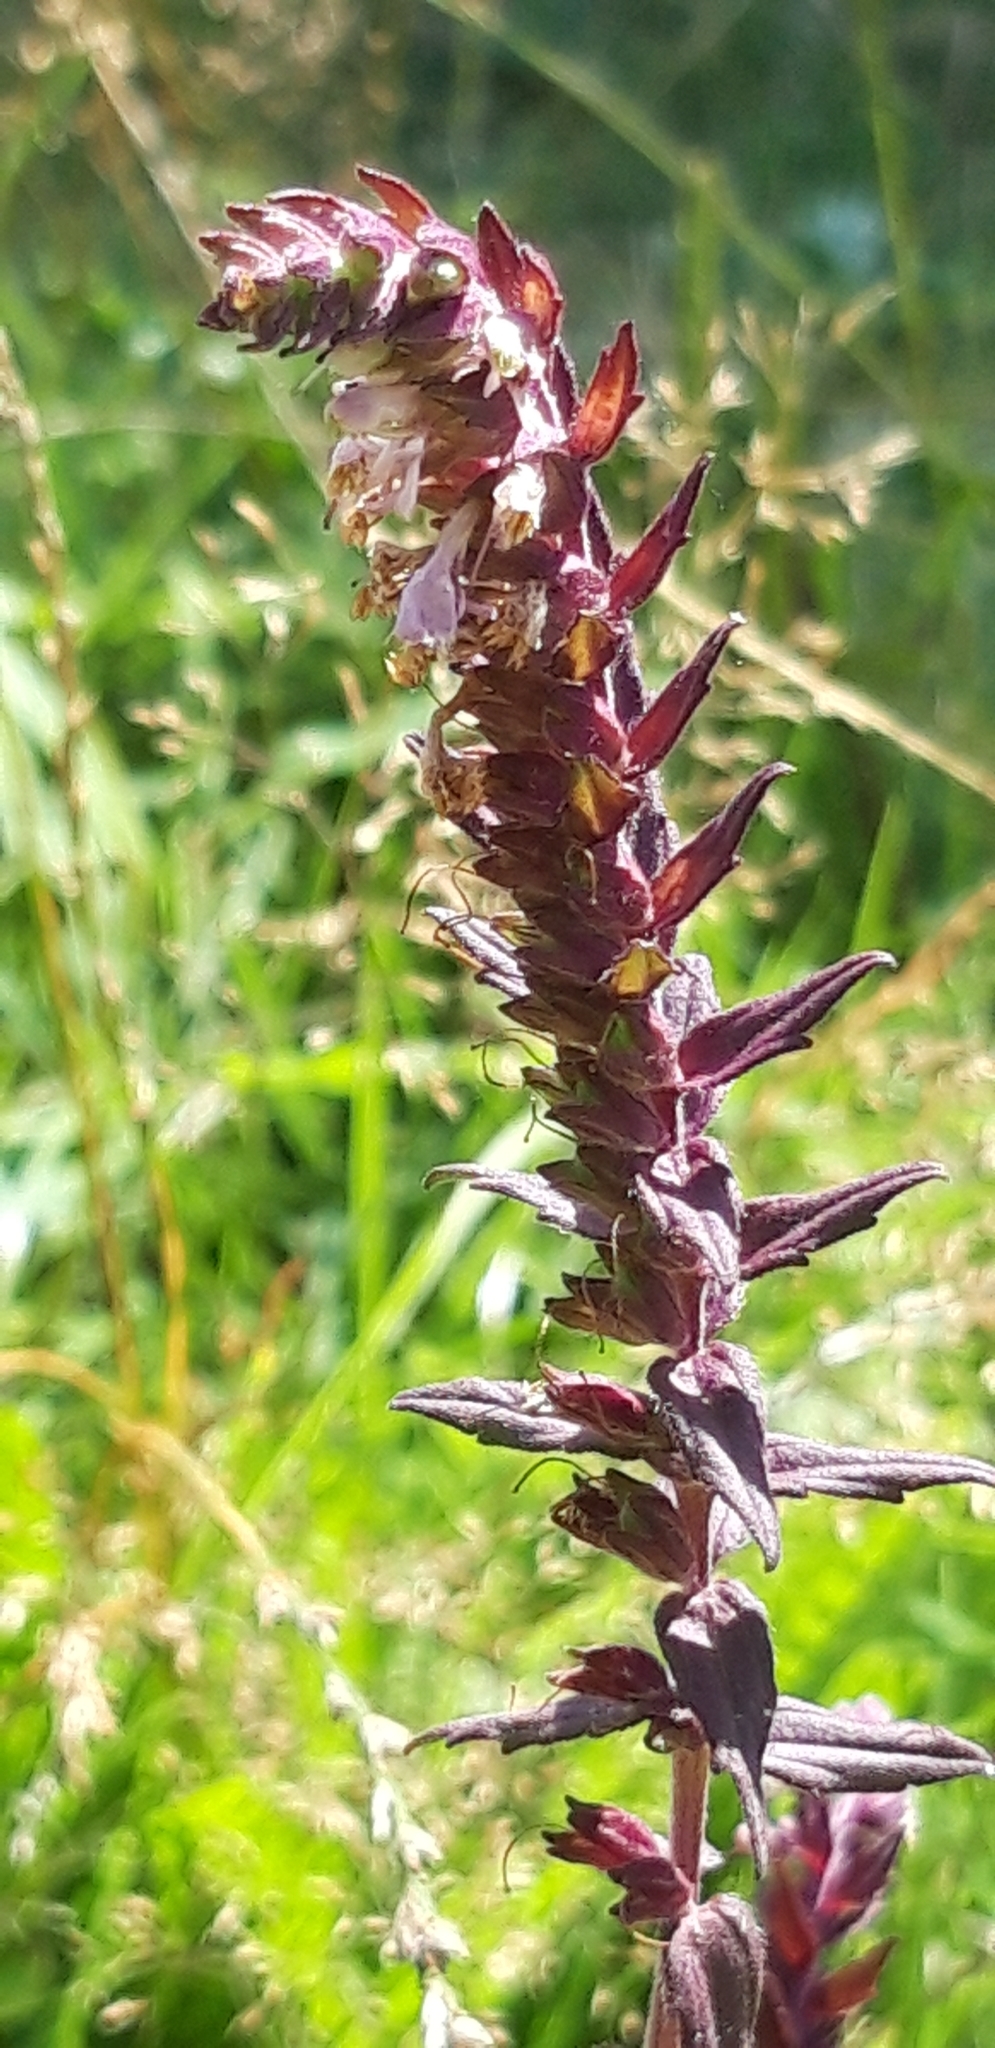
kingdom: Plantae
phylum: Tracheophyta
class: Magnoliopsida
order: Lamiales
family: Orobanchaceae
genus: Odontites
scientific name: Odontites vernus
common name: Red bartsia
